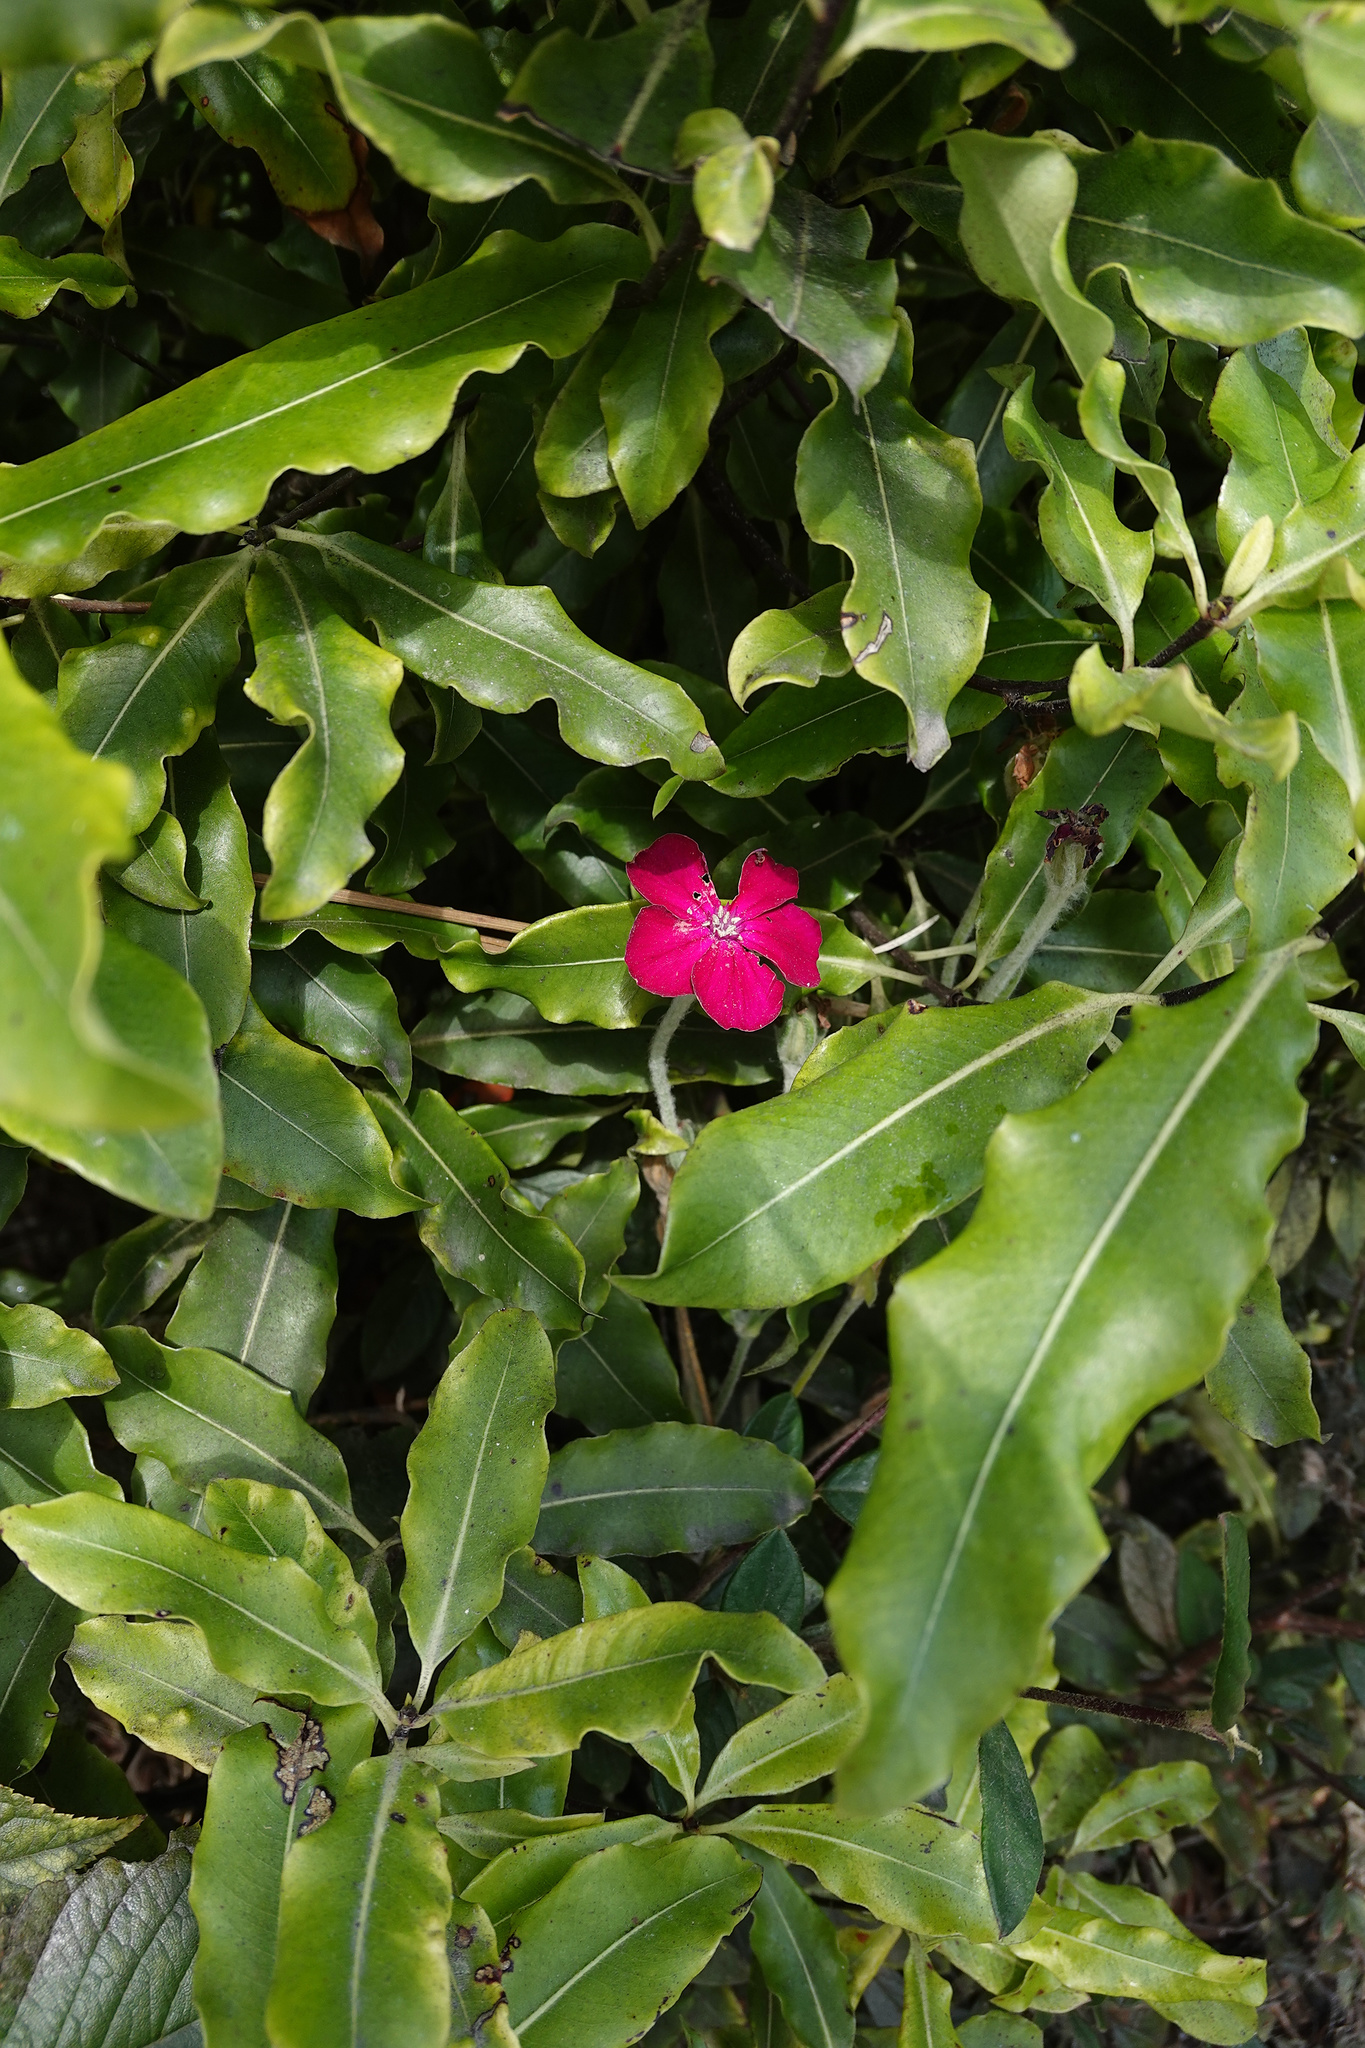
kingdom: Plantae
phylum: Tracheophyta
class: Magnoliopsida
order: Brassicales
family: Brassicaceae
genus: Matthiola
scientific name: Matthiola incana
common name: Hoary stock
